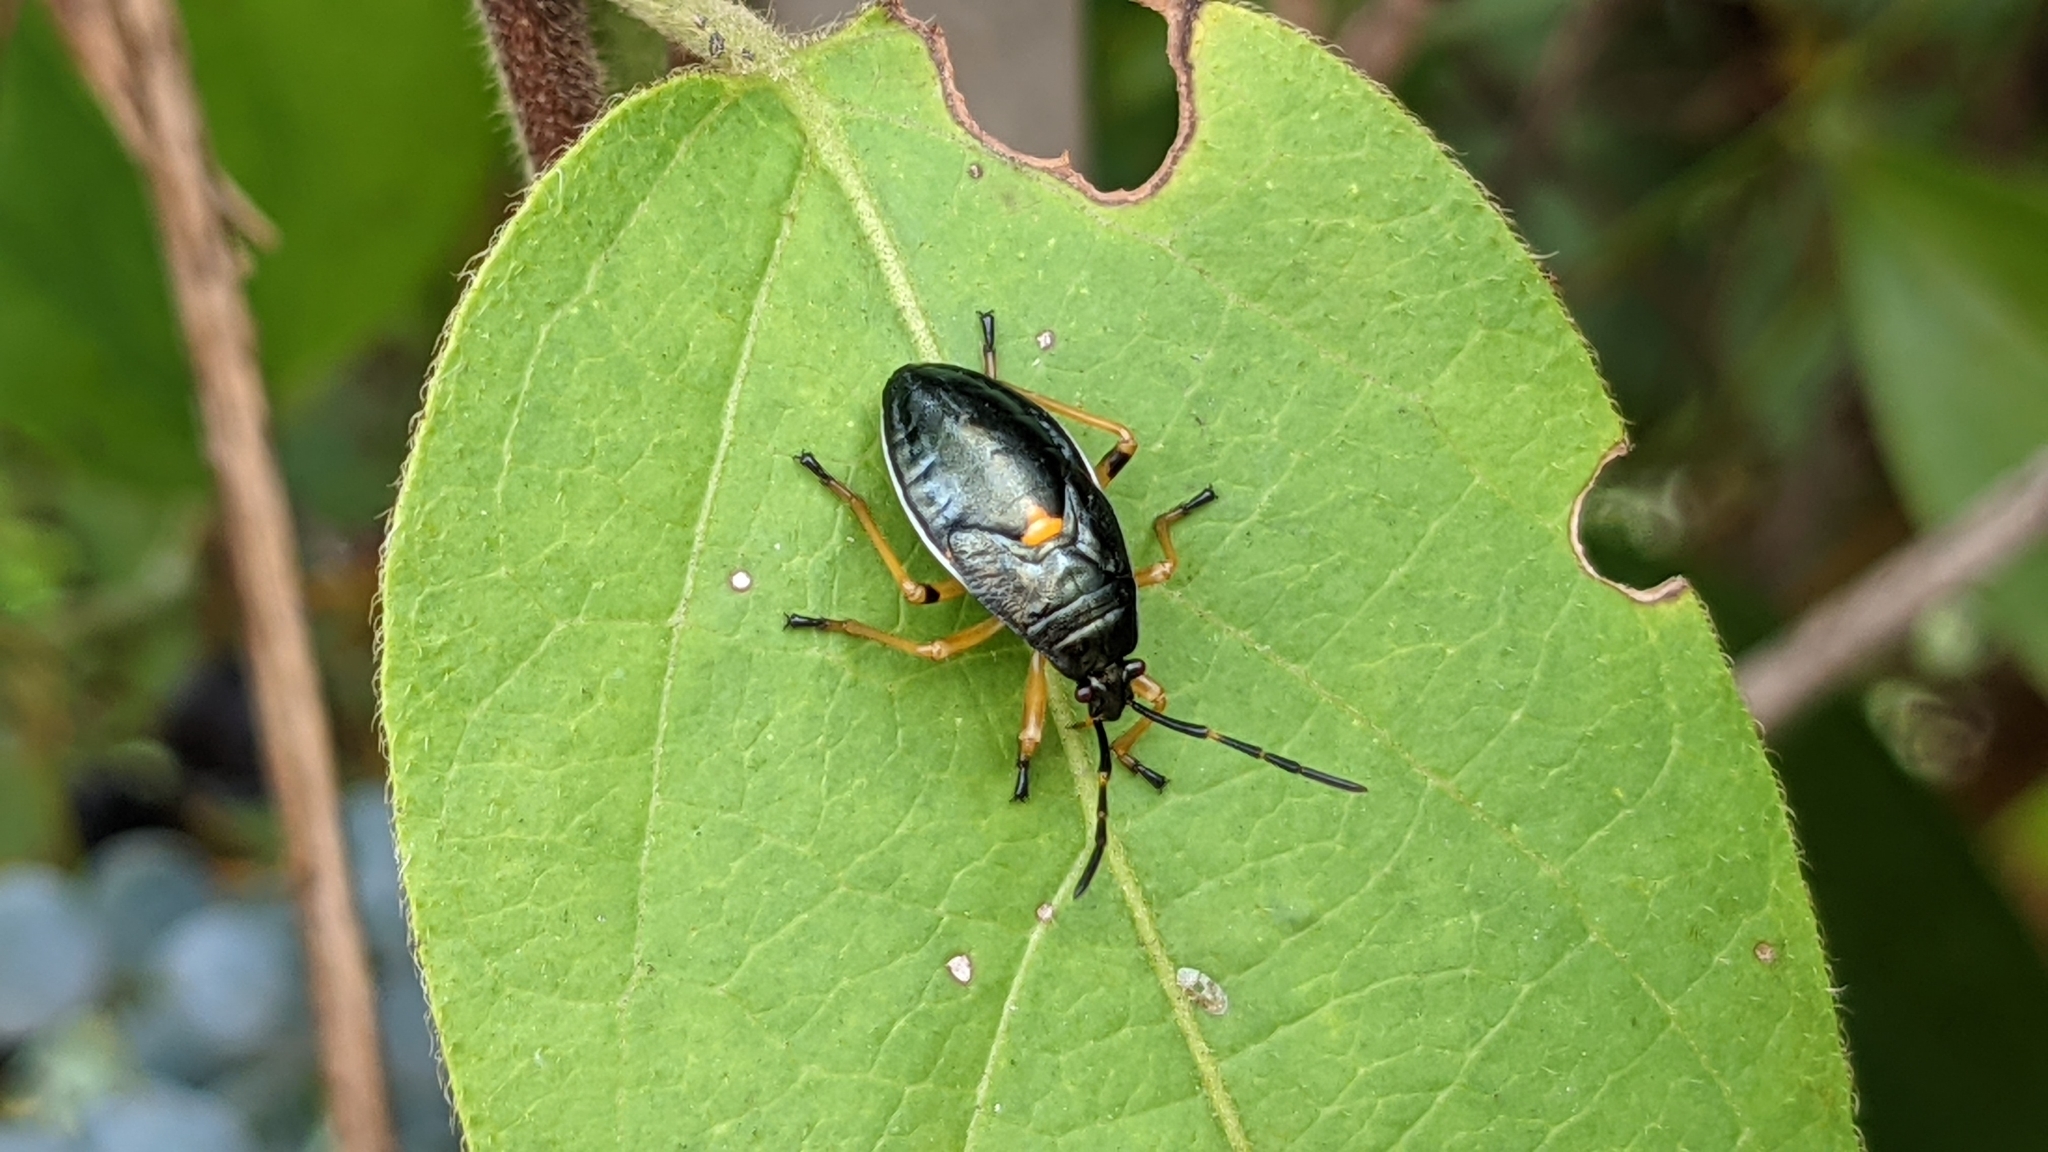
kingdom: Animalia
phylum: Arthropoda
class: Insecta
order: Hemiptera
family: Largidae
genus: Largus
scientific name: Largus succinctus
